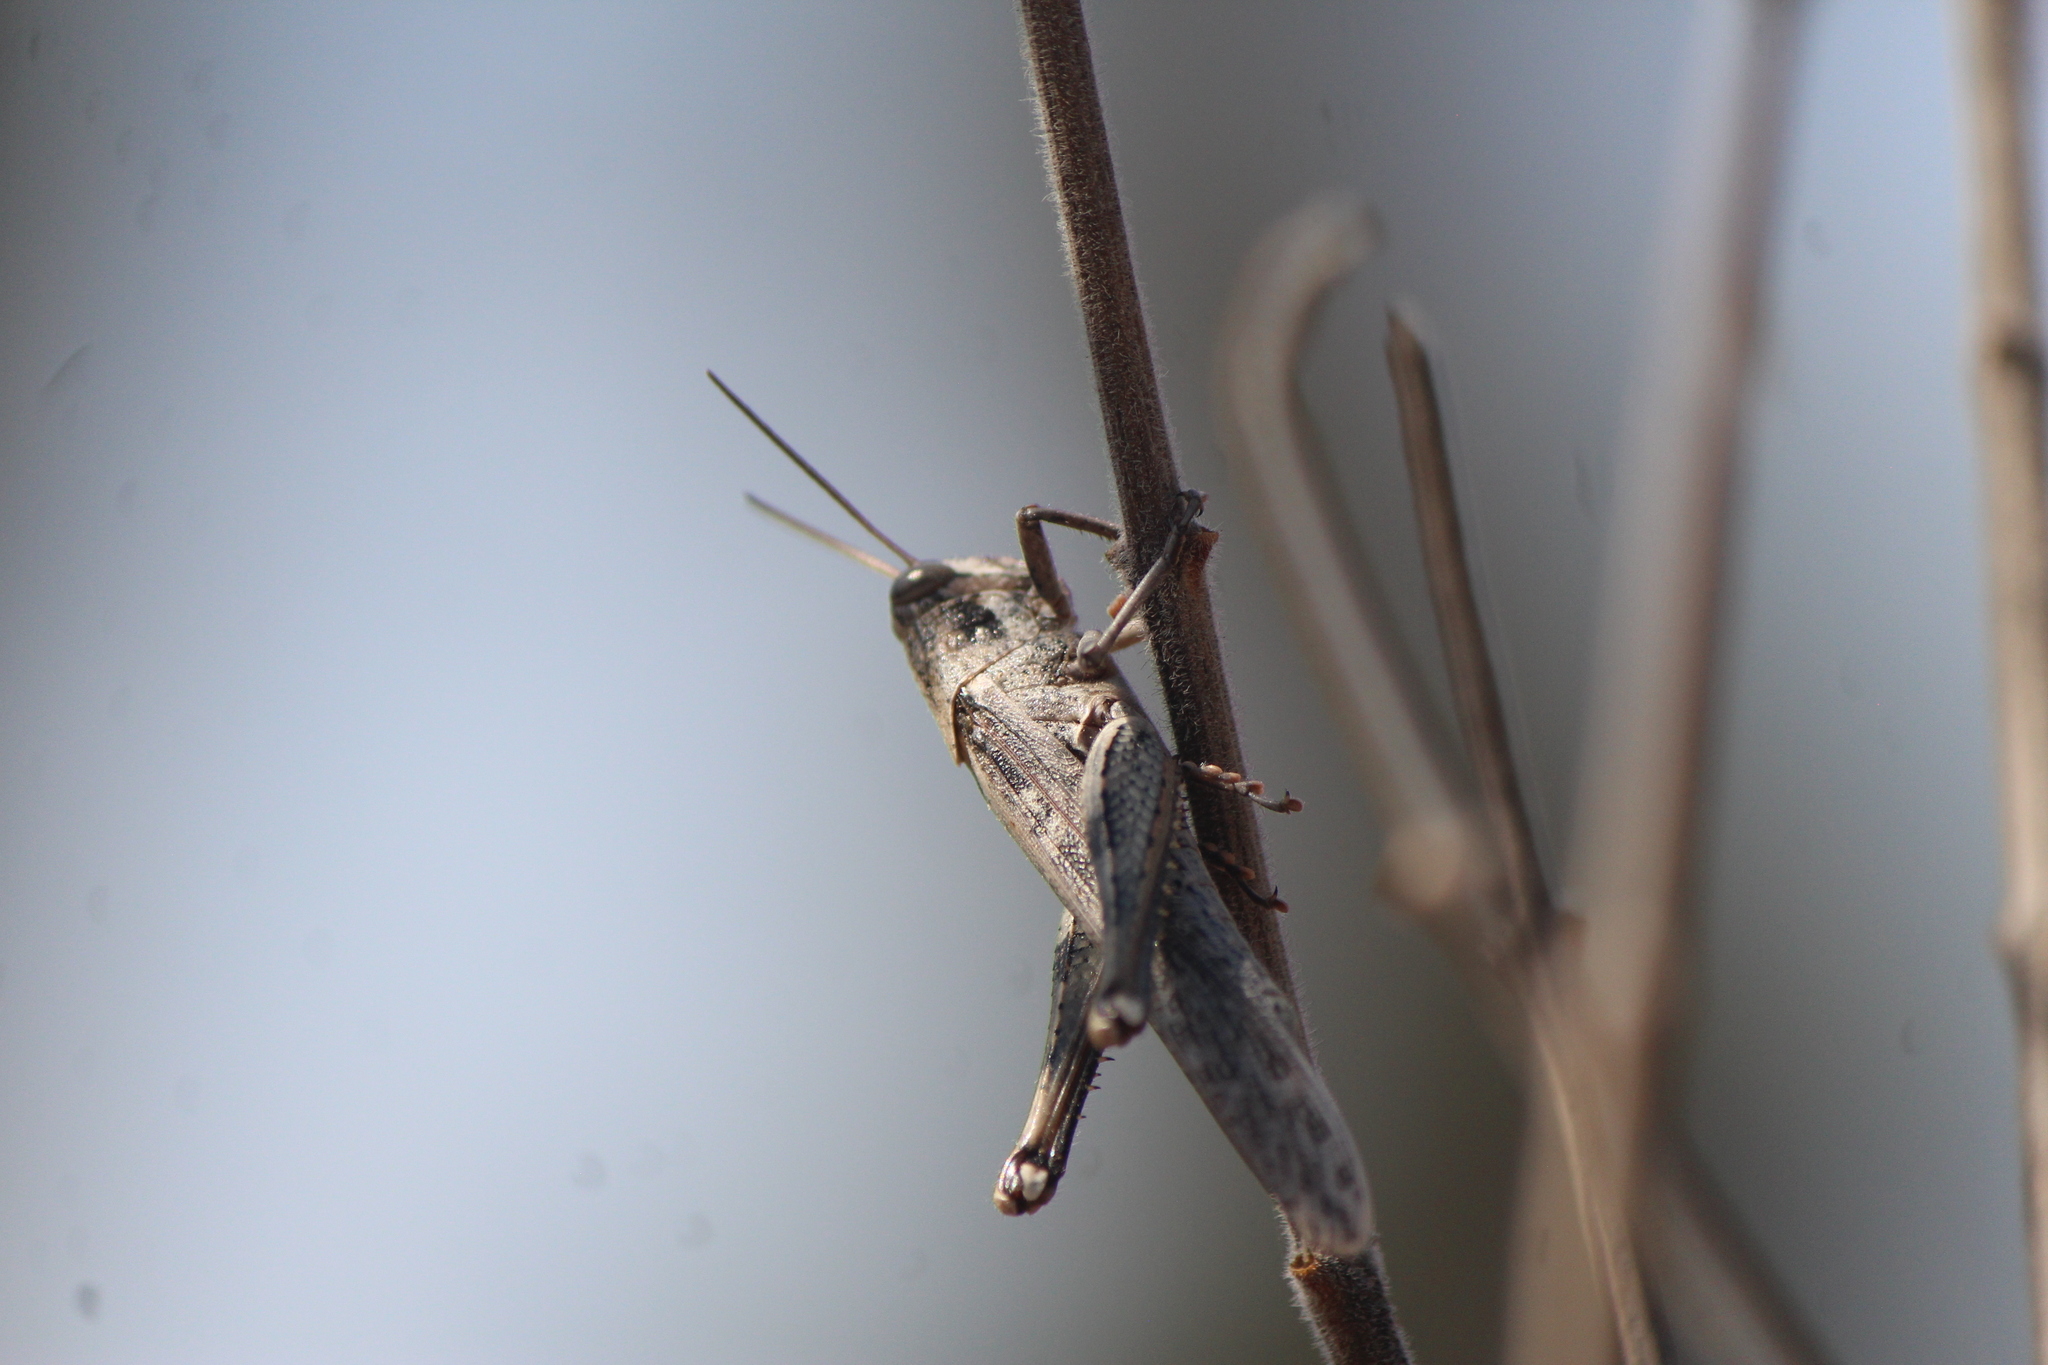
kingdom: Animalia
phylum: Arthropoda
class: Insecta
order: Orthoptera
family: Acrididae
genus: Schistocerca
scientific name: Schistocerca nitens
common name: Vagrant grasshopper
